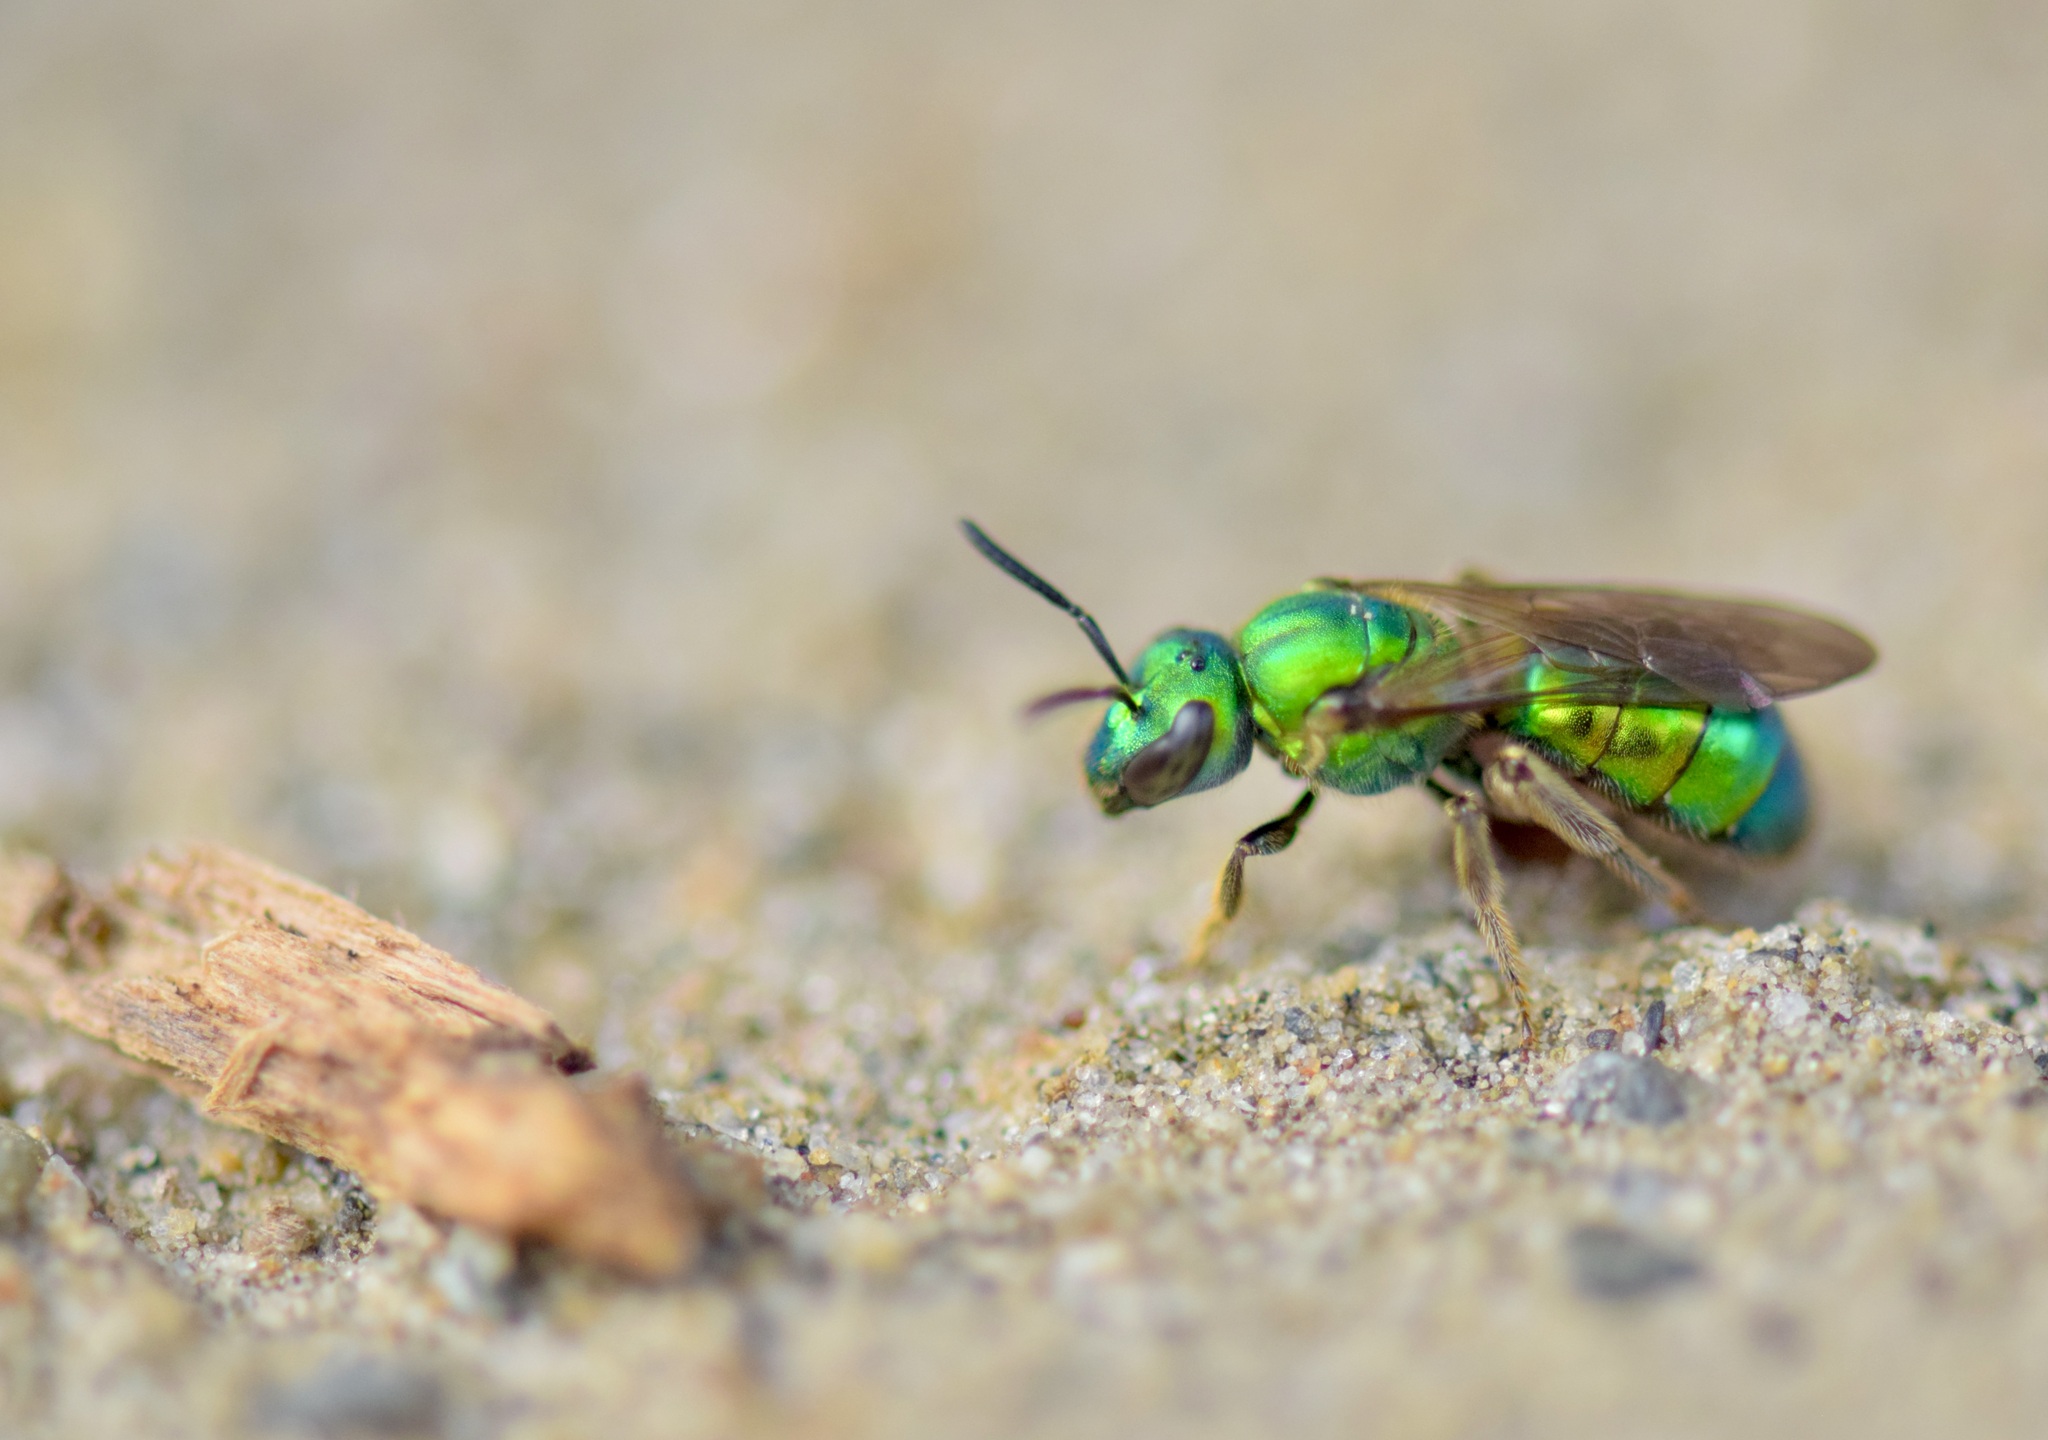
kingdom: Animalia
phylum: Arthropoda
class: Insecta
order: Hymenoptera
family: Halictidae
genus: Augochlora
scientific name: Augochlora pura
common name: Pure green sweat bee
